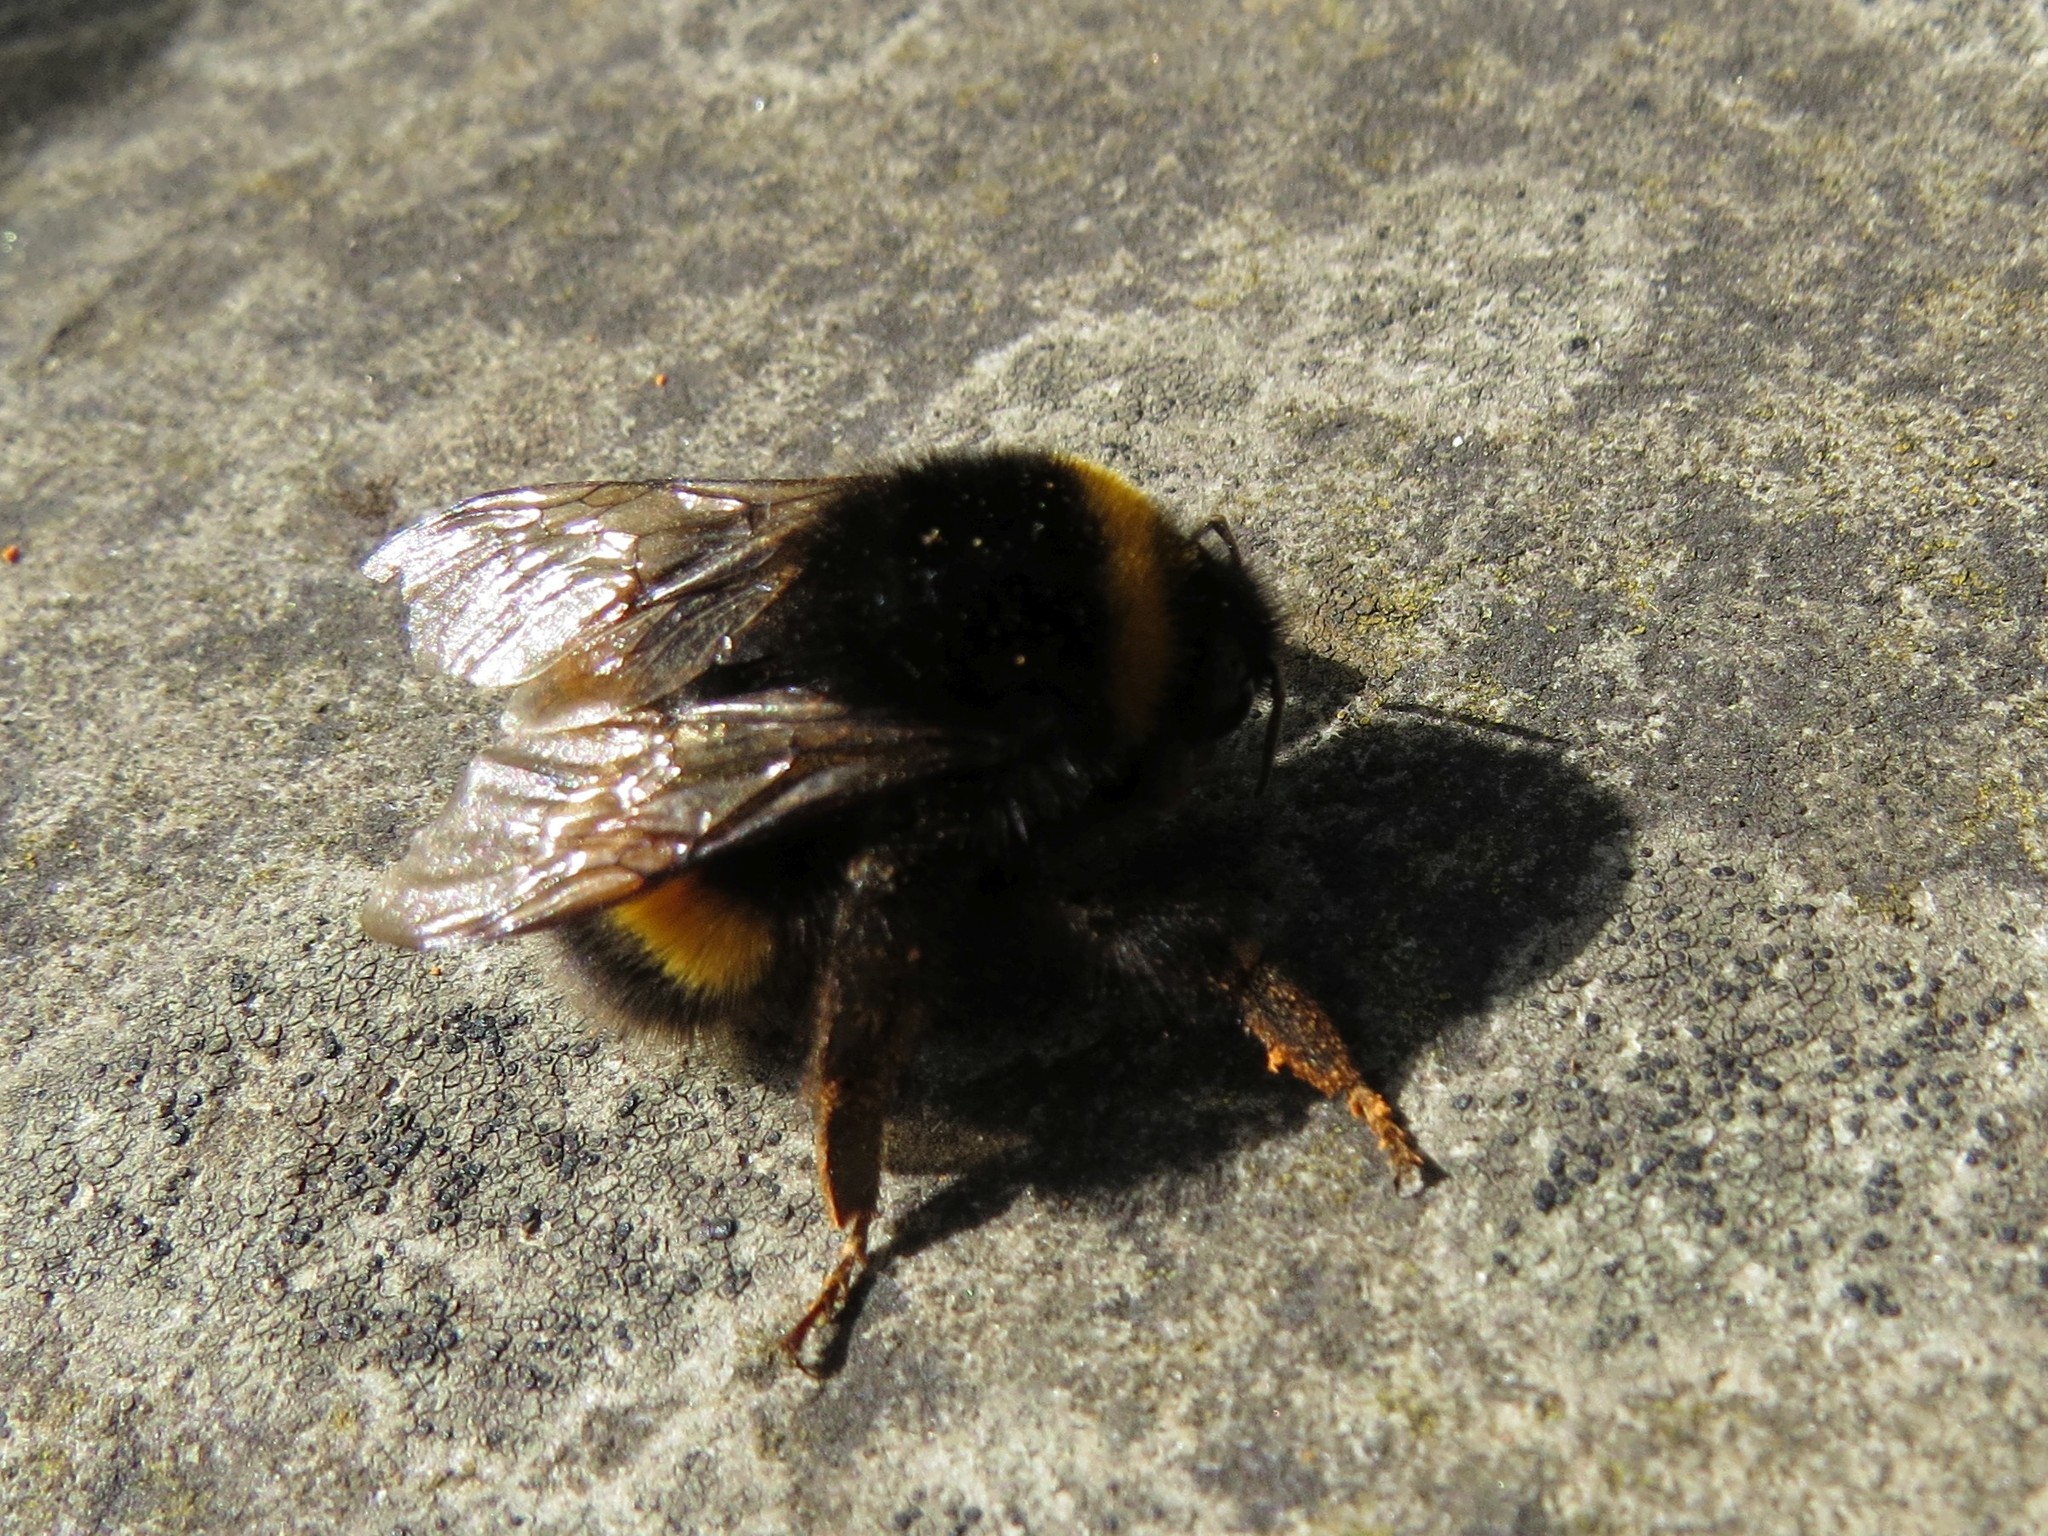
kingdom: Animalia
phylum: Arthropoda
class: Insecta
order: Hymenoptera
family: Apidae
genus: Bombus
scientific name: Bombus terrestris
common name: Buff-tailed bumblebee
